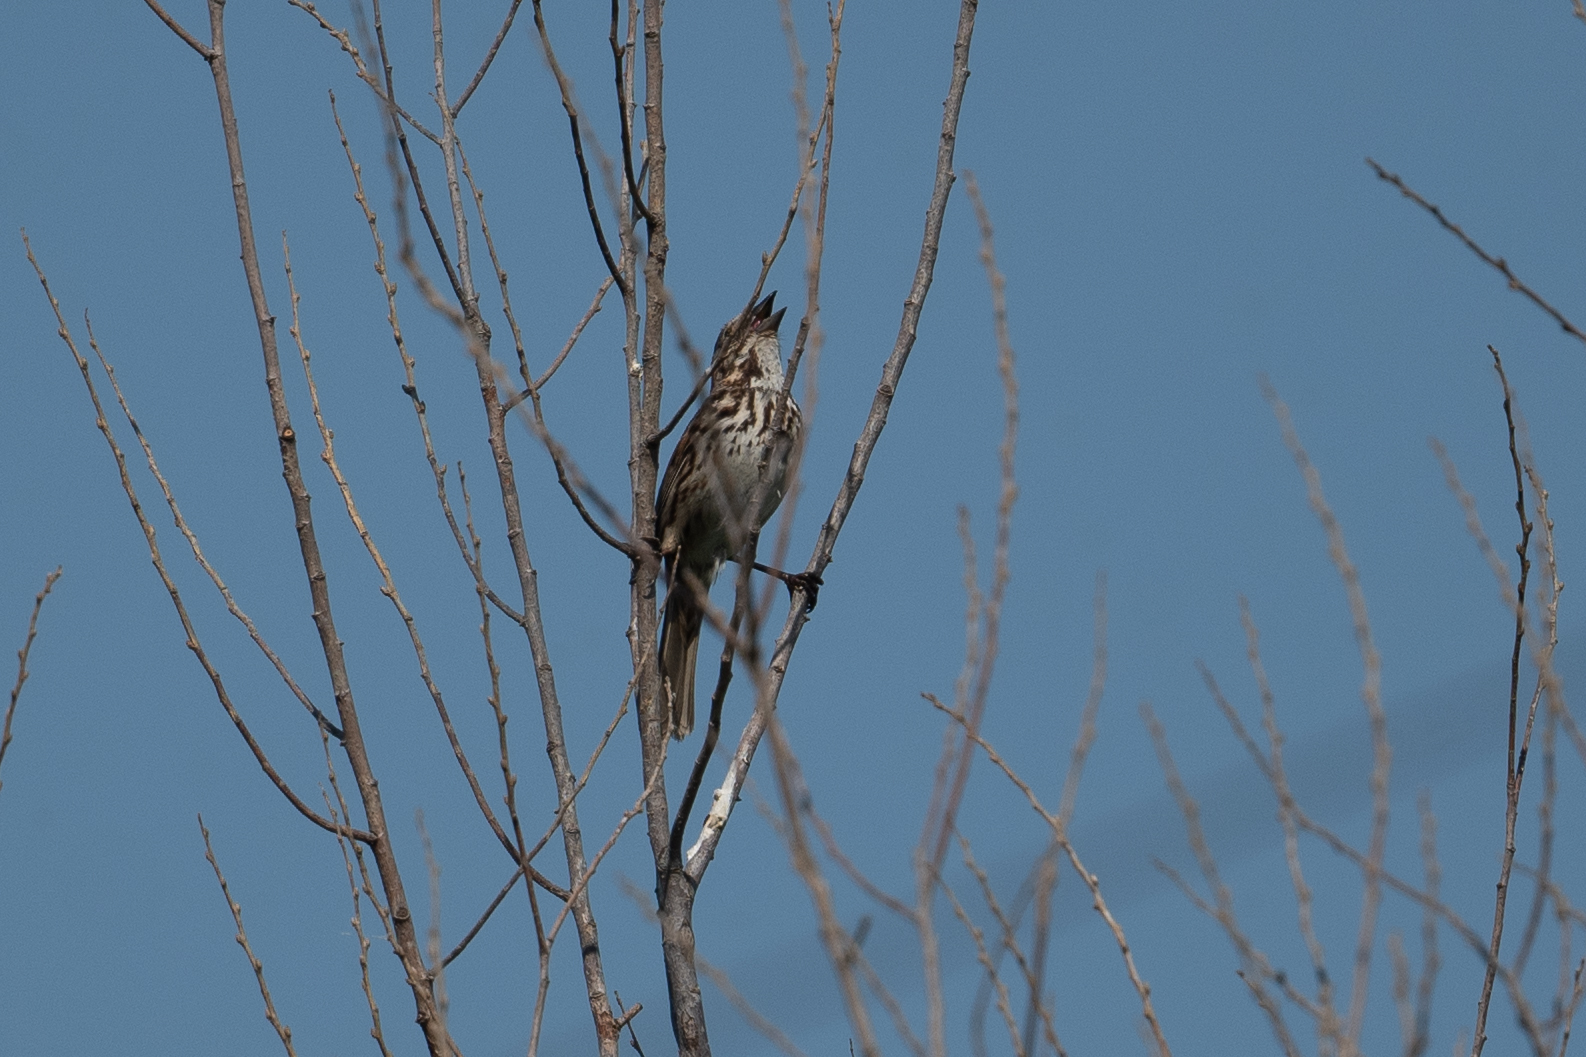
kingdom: Animalia
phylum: Chordata
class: Aves
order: Passeriformes
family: Passerellidae
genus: Melospiza
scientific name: Melospiza melodia
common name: Song sparrow
